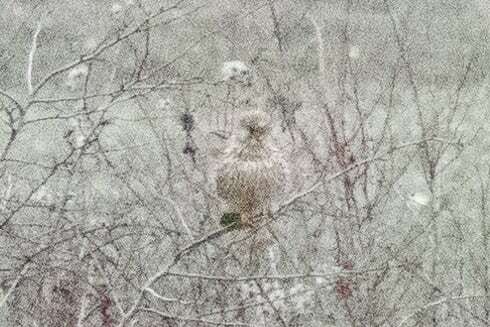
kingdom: Animalia
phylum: Chordata
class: Aves
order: Falconiformes
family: Falconidae
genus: Falco
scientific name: Falco tinnunculus
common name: Common kestrel
